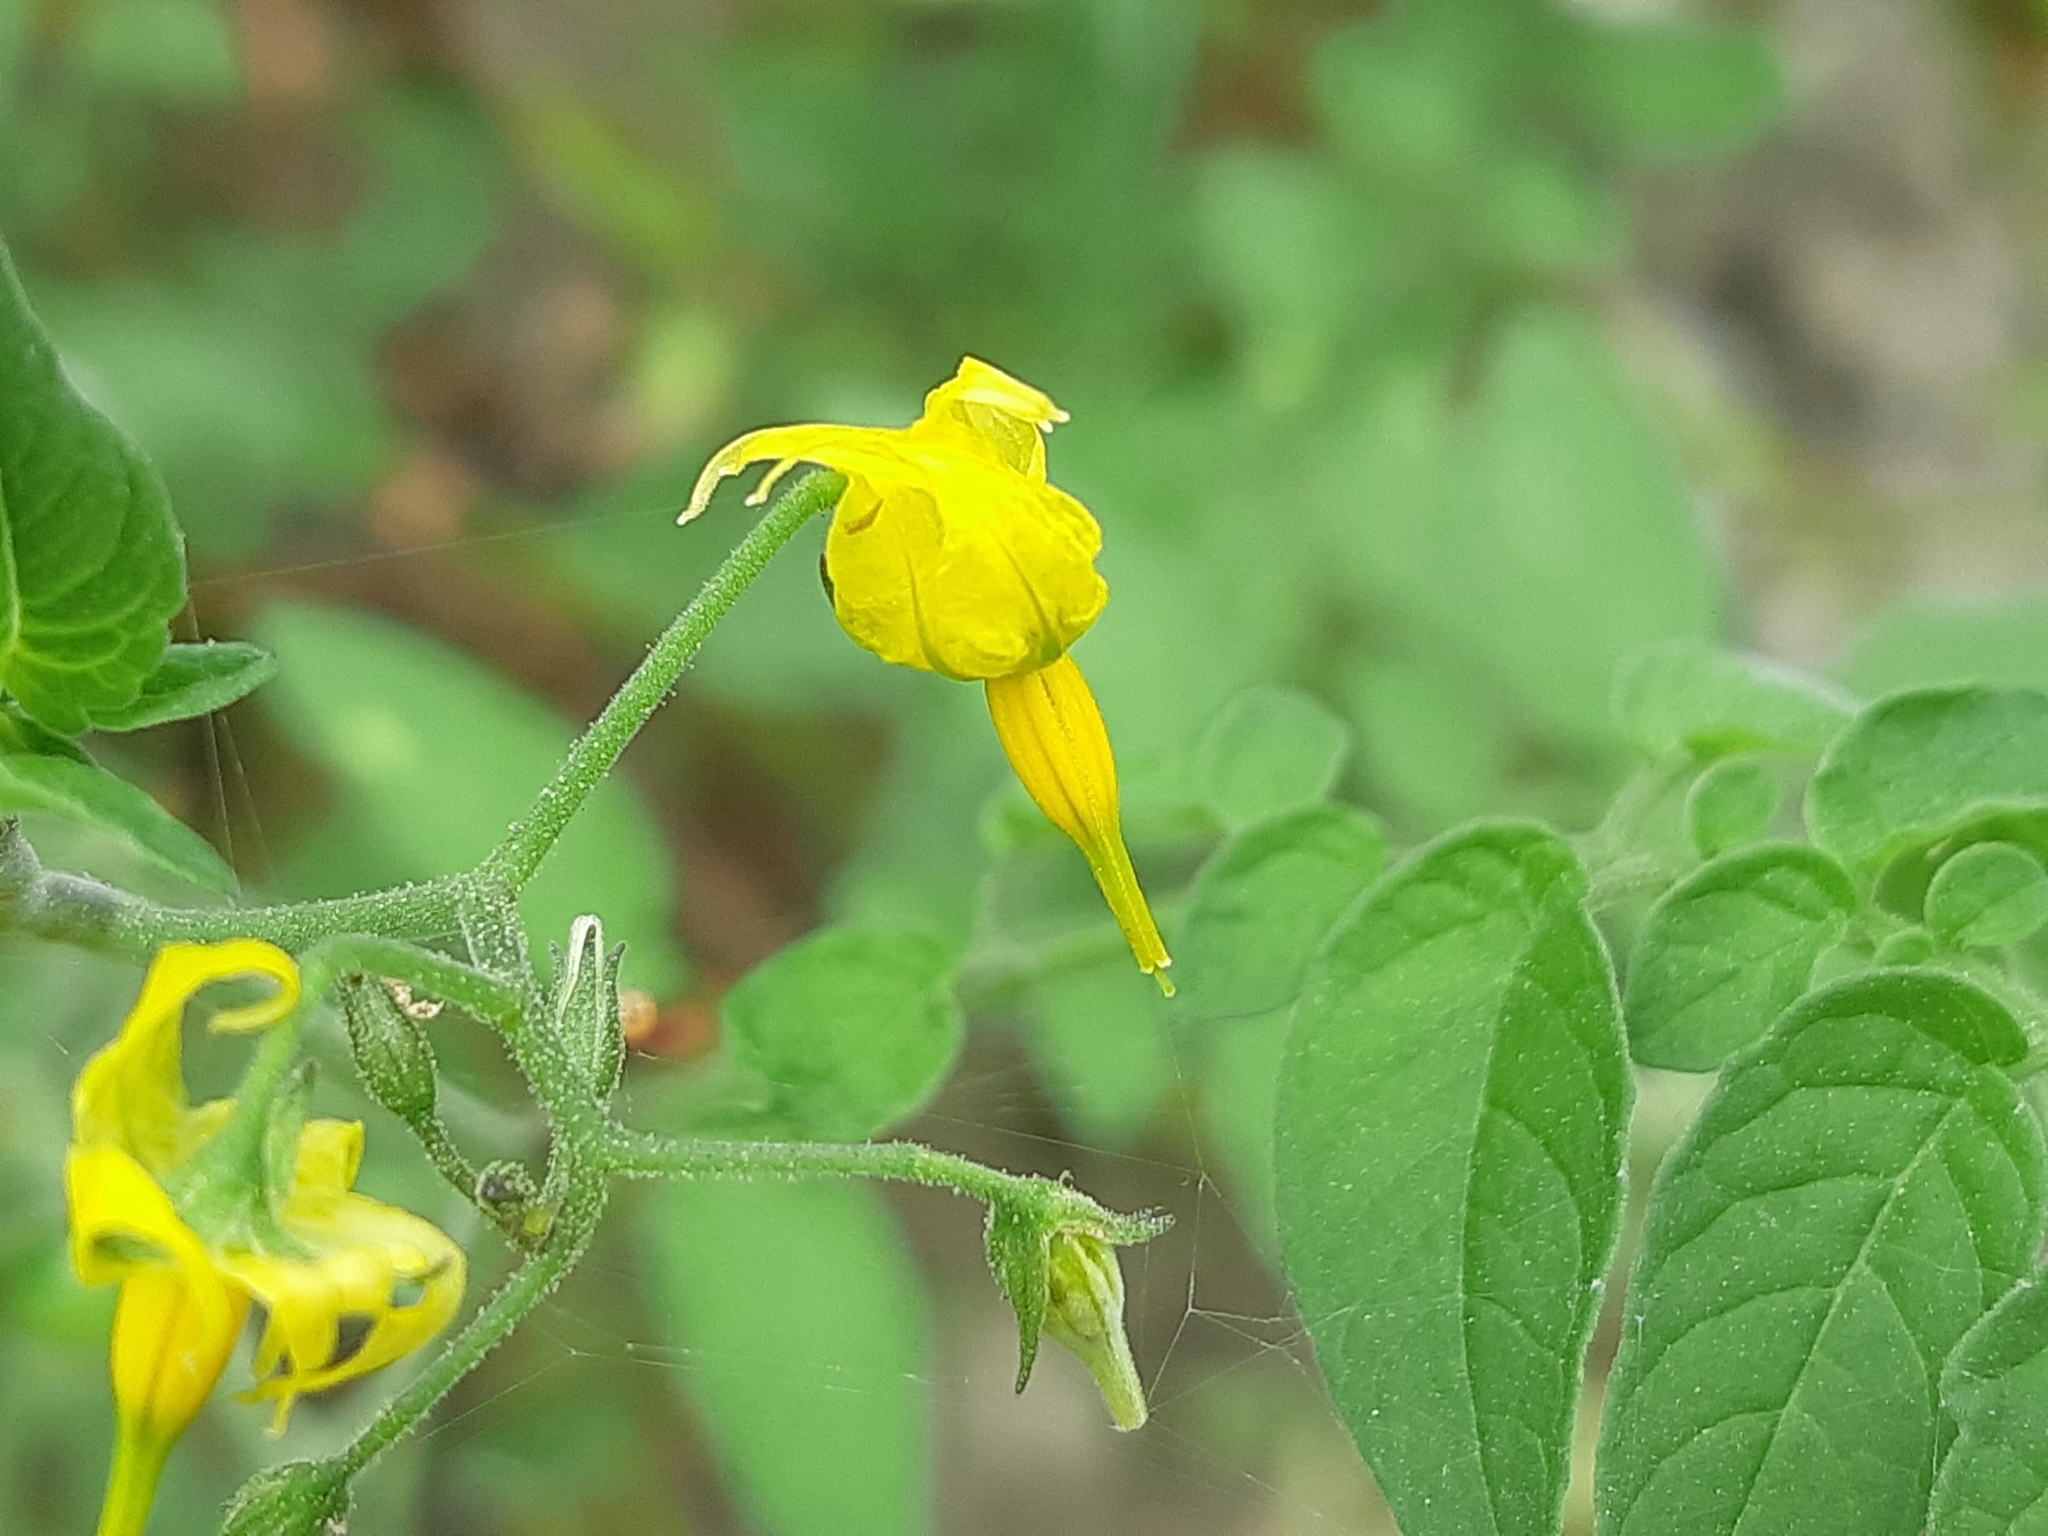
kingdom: Plantae
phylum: Tracheophyta
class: Magnoliopsida
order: Solanales
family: Solanaceae
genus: Solanum
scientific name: Solanum pimpinellifolium
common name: Currant-tomato
